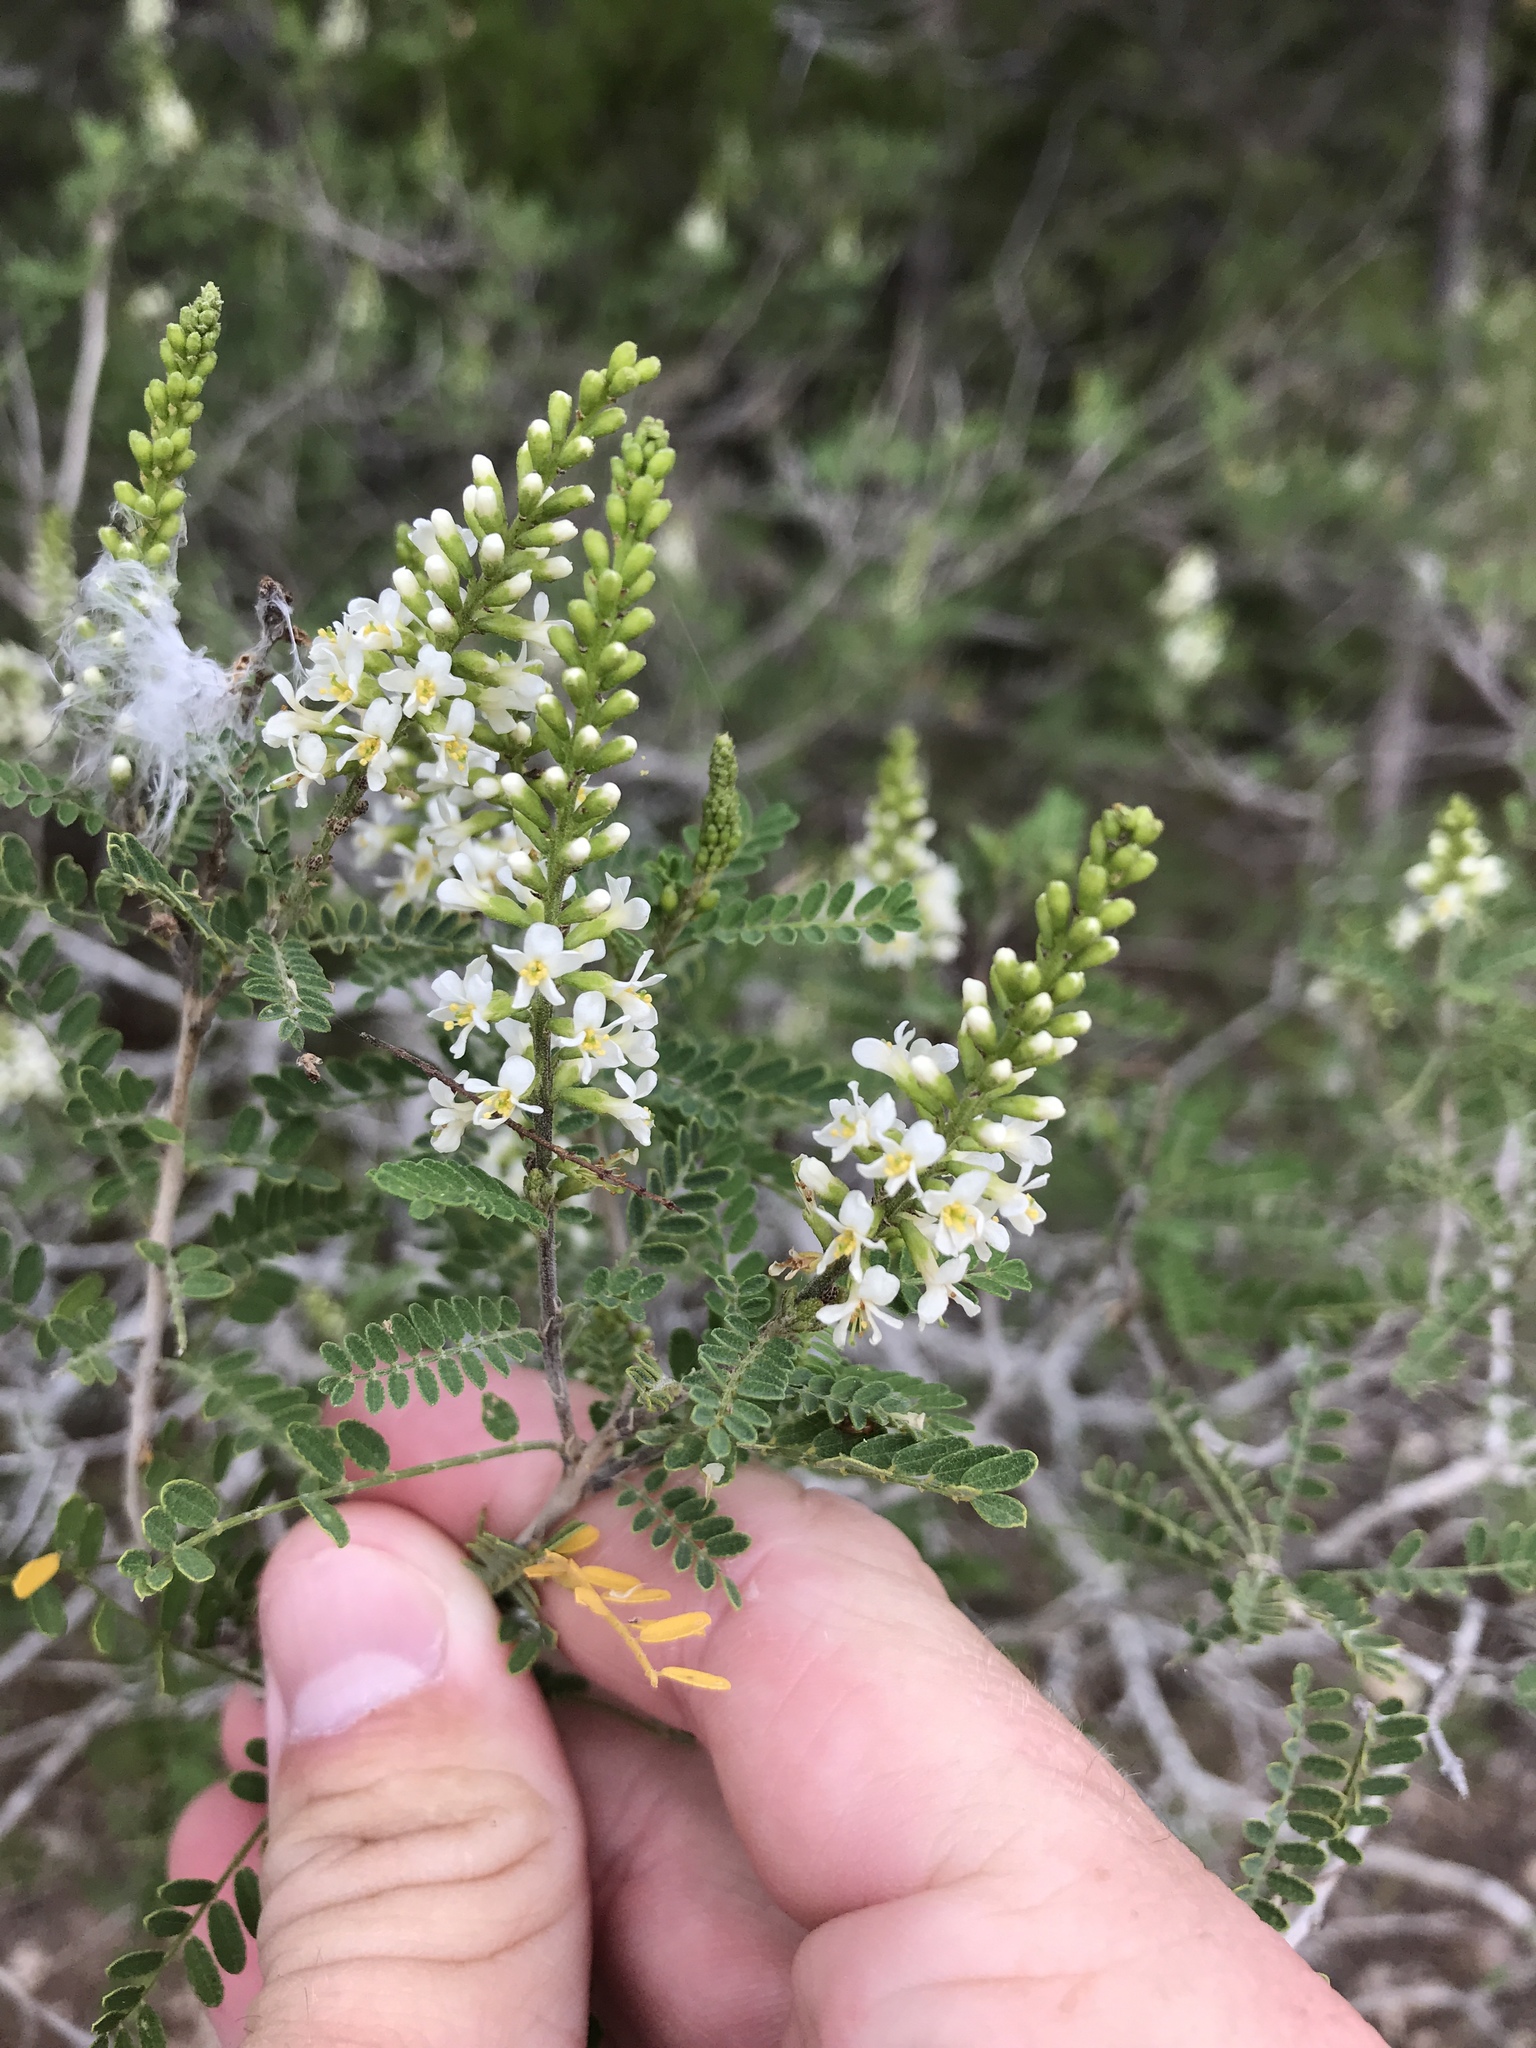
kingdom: Plantae
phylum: Tracheophyta
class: Magnoliopsida
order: Fabales
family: Fabaceae
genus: Eysenhardtia
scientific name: Eysenhardtia texana
